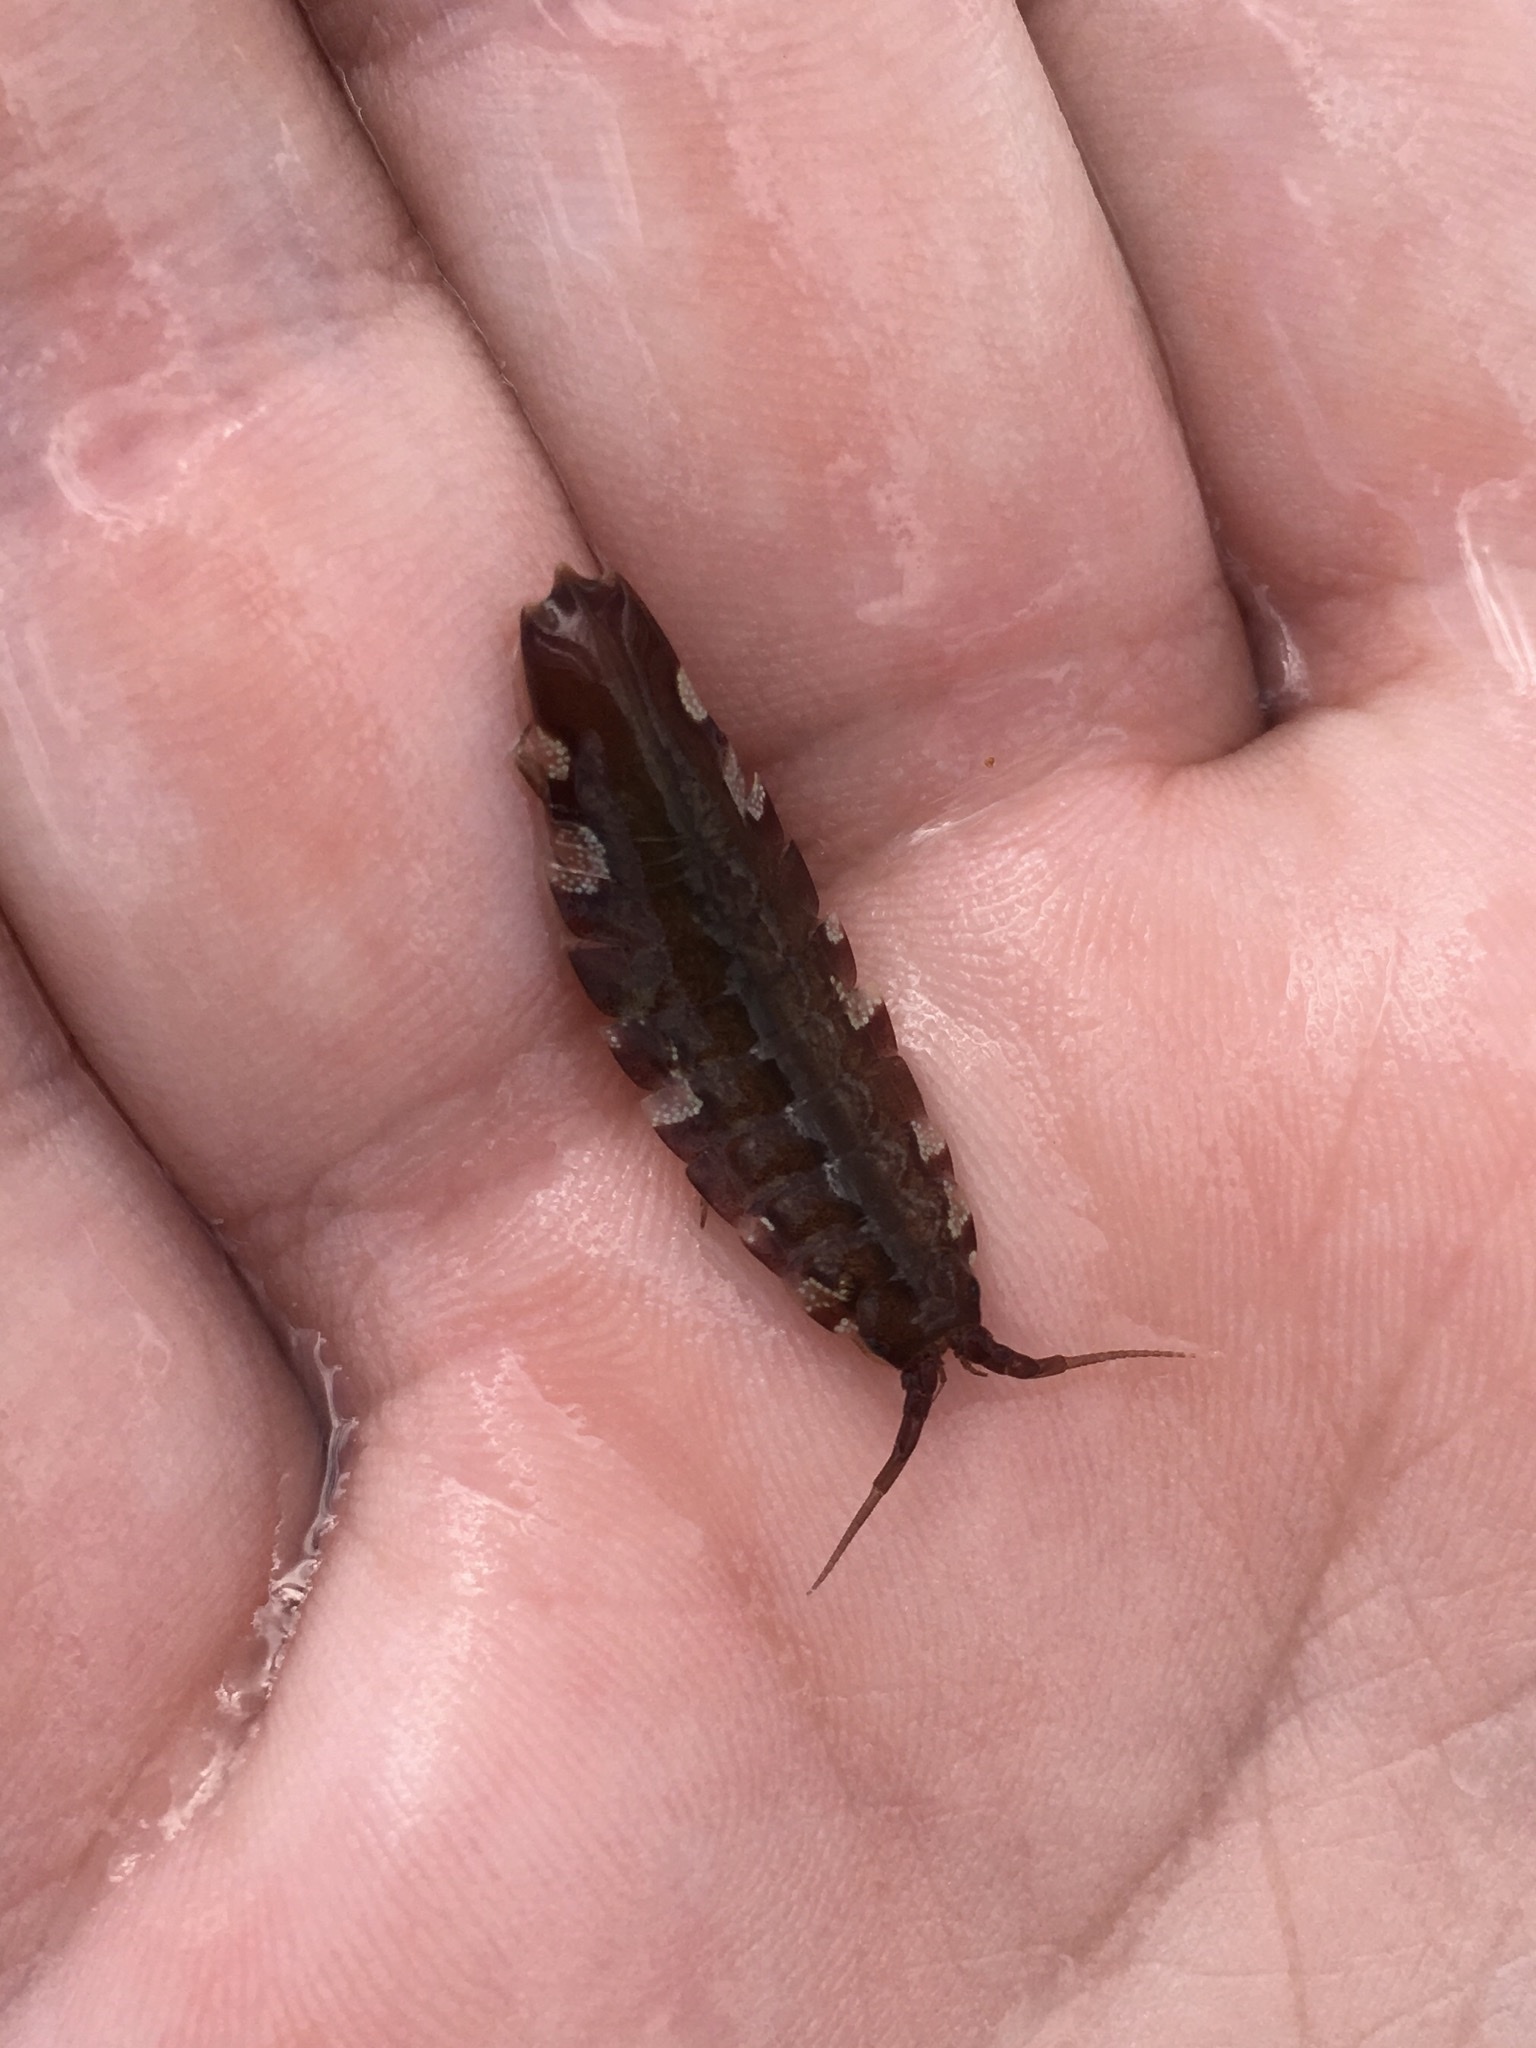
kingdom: Animalia
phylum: Arthropoda
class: Malacostraca
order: Isopoda
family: Idoteidae
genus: Idotea
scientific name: Idotea balthica
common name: Baltic isopod
